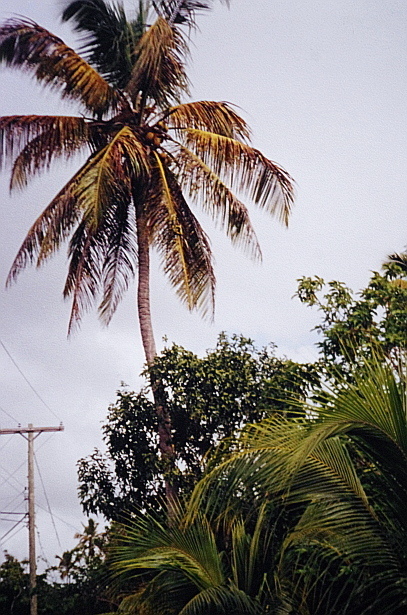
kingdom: Plantae
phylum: Tracheophyta
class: Liliopsida
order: Arecales
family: Arecaceae
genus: Cocos
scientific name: Cocos nucifera
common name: Coconut palm
